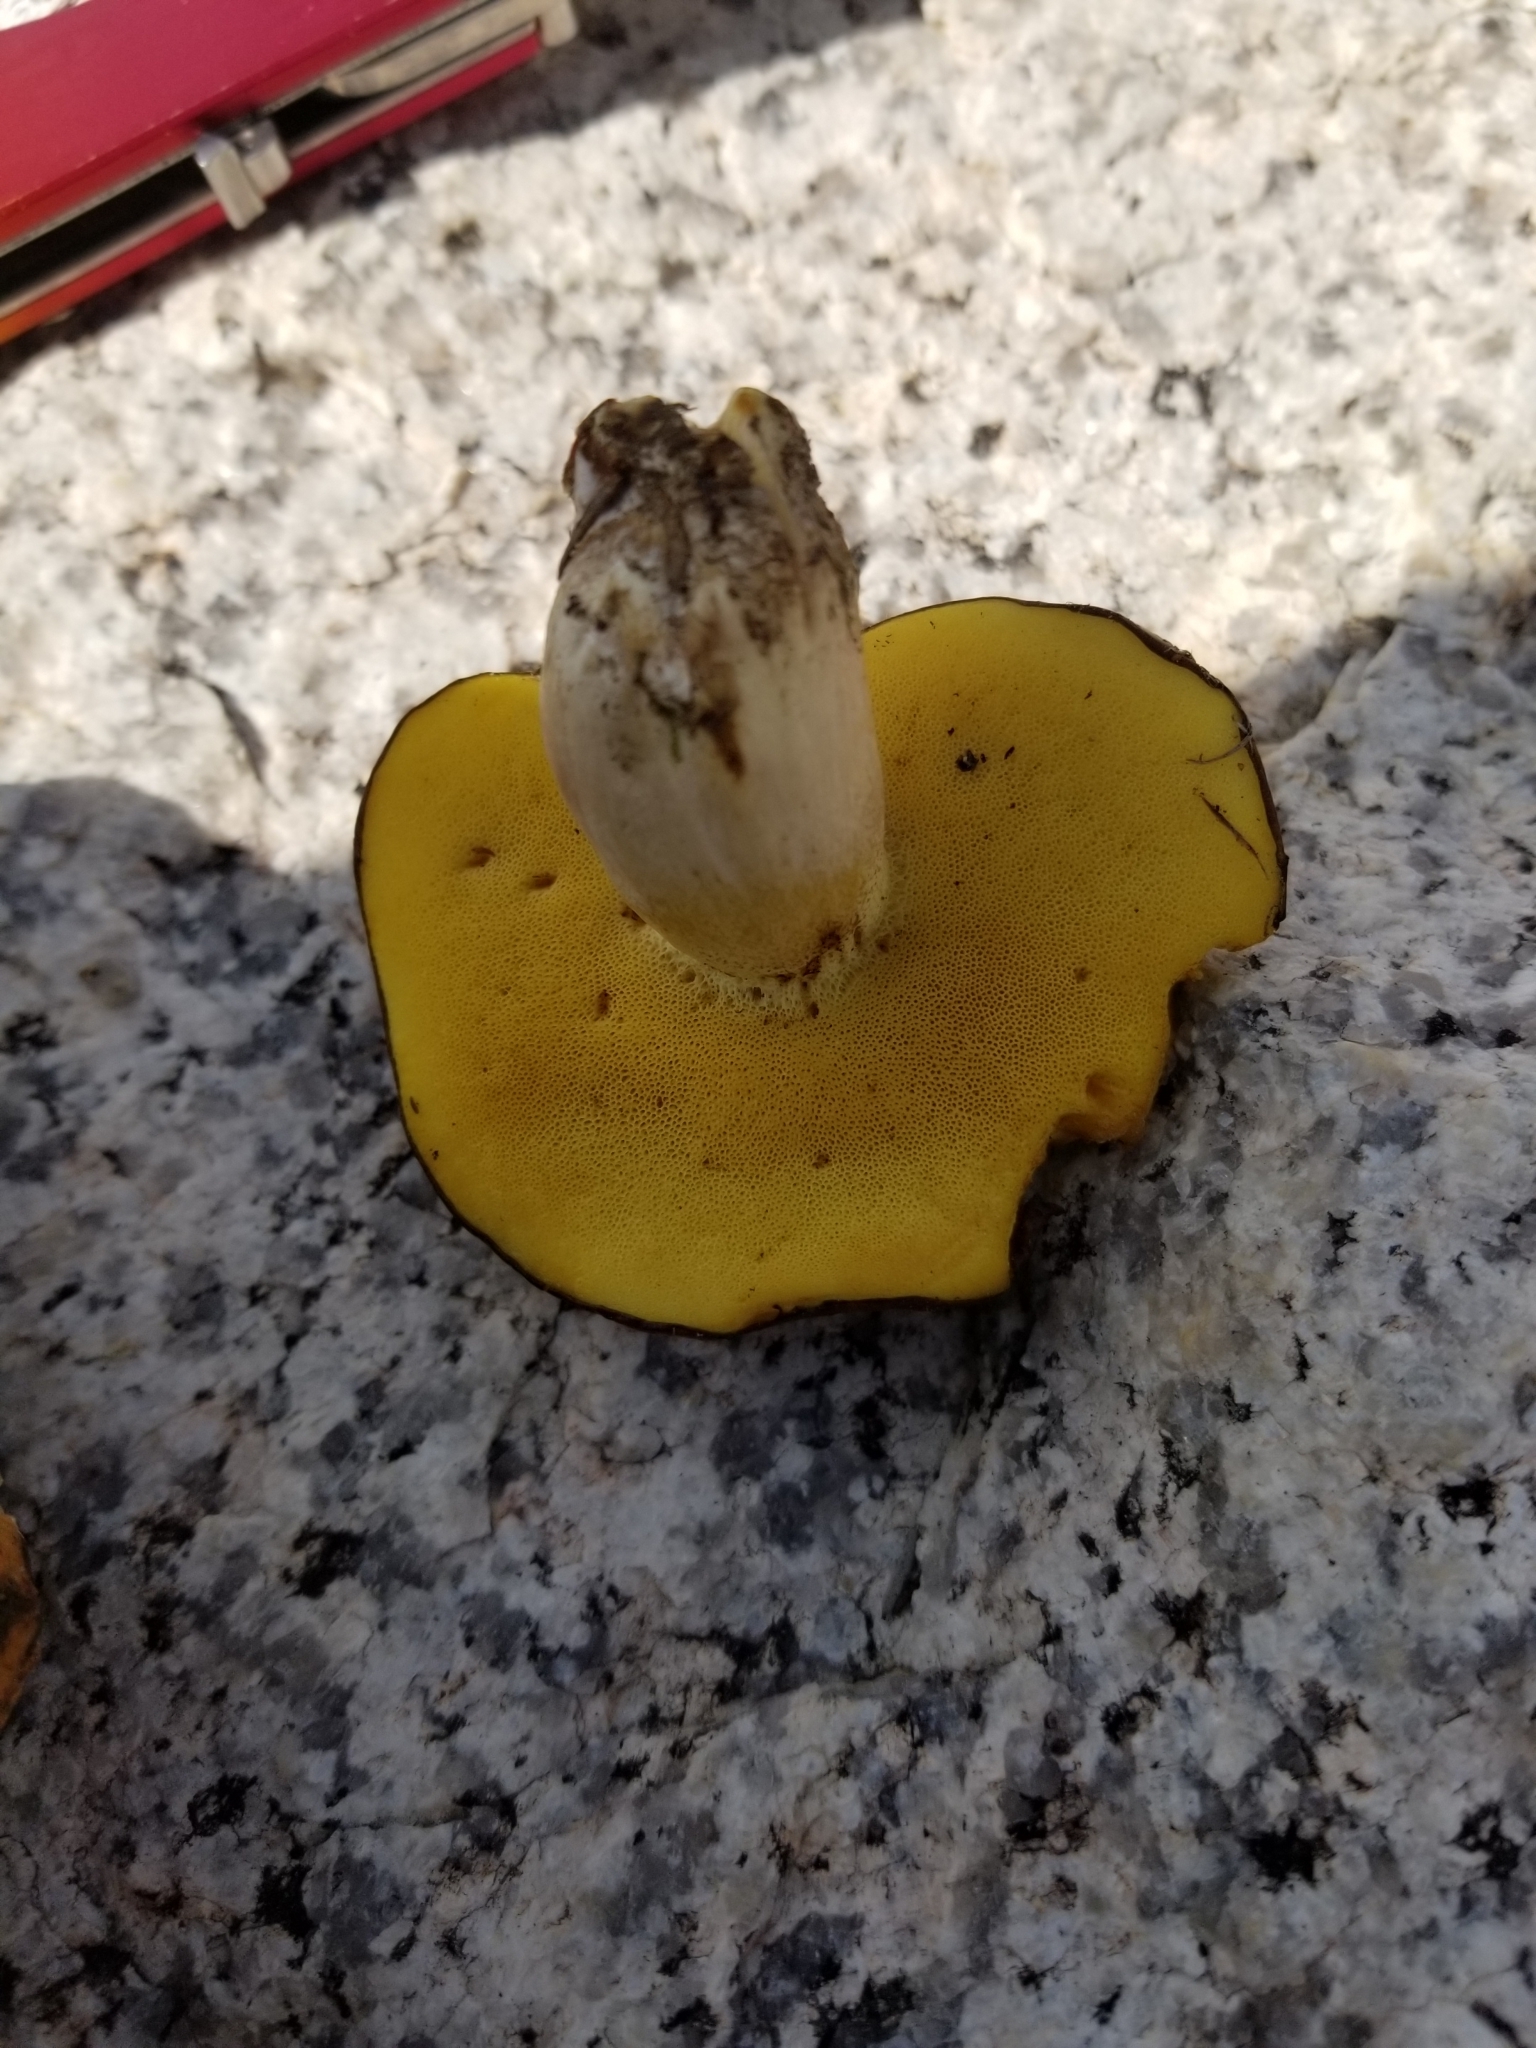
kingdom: Fungi
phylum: Basidiomycota
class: Agaricomycetes
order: Boletales
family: Suillaceae
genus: Suillus
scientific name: Suillus brevipes
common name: Short-stalked suillus
